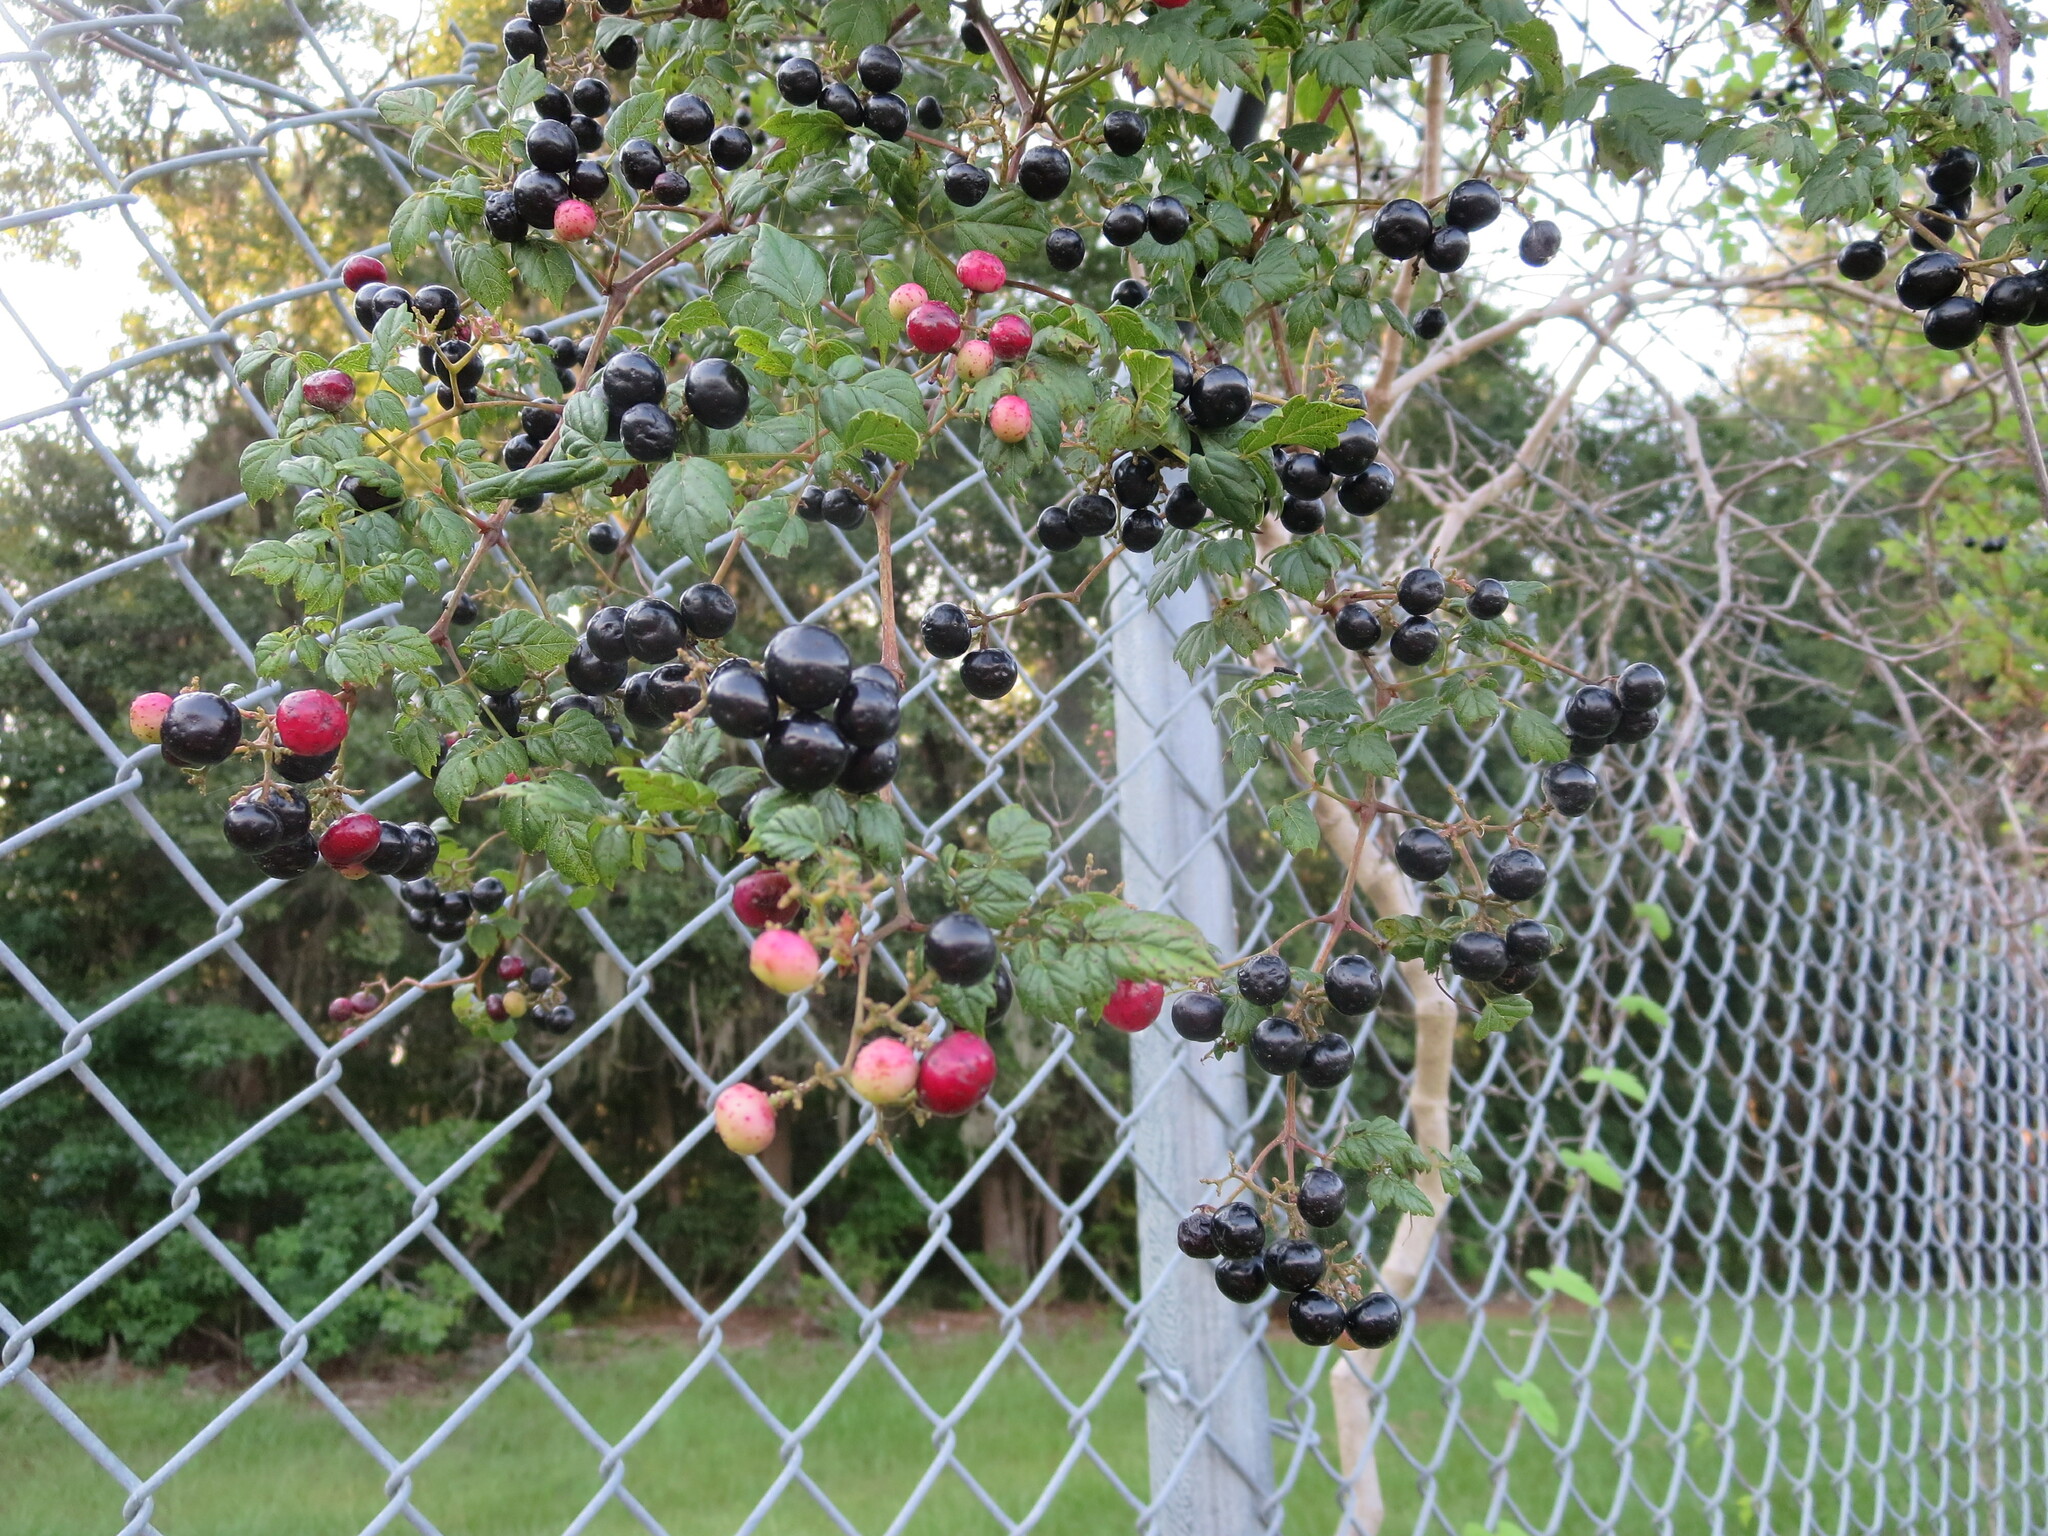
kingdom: Plantae
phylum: Tracheophyta
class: Magnoliopsida
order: Vitales
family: Vitaceae
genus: Nekemias
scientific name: Nekemias arborea
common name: Peppervine
